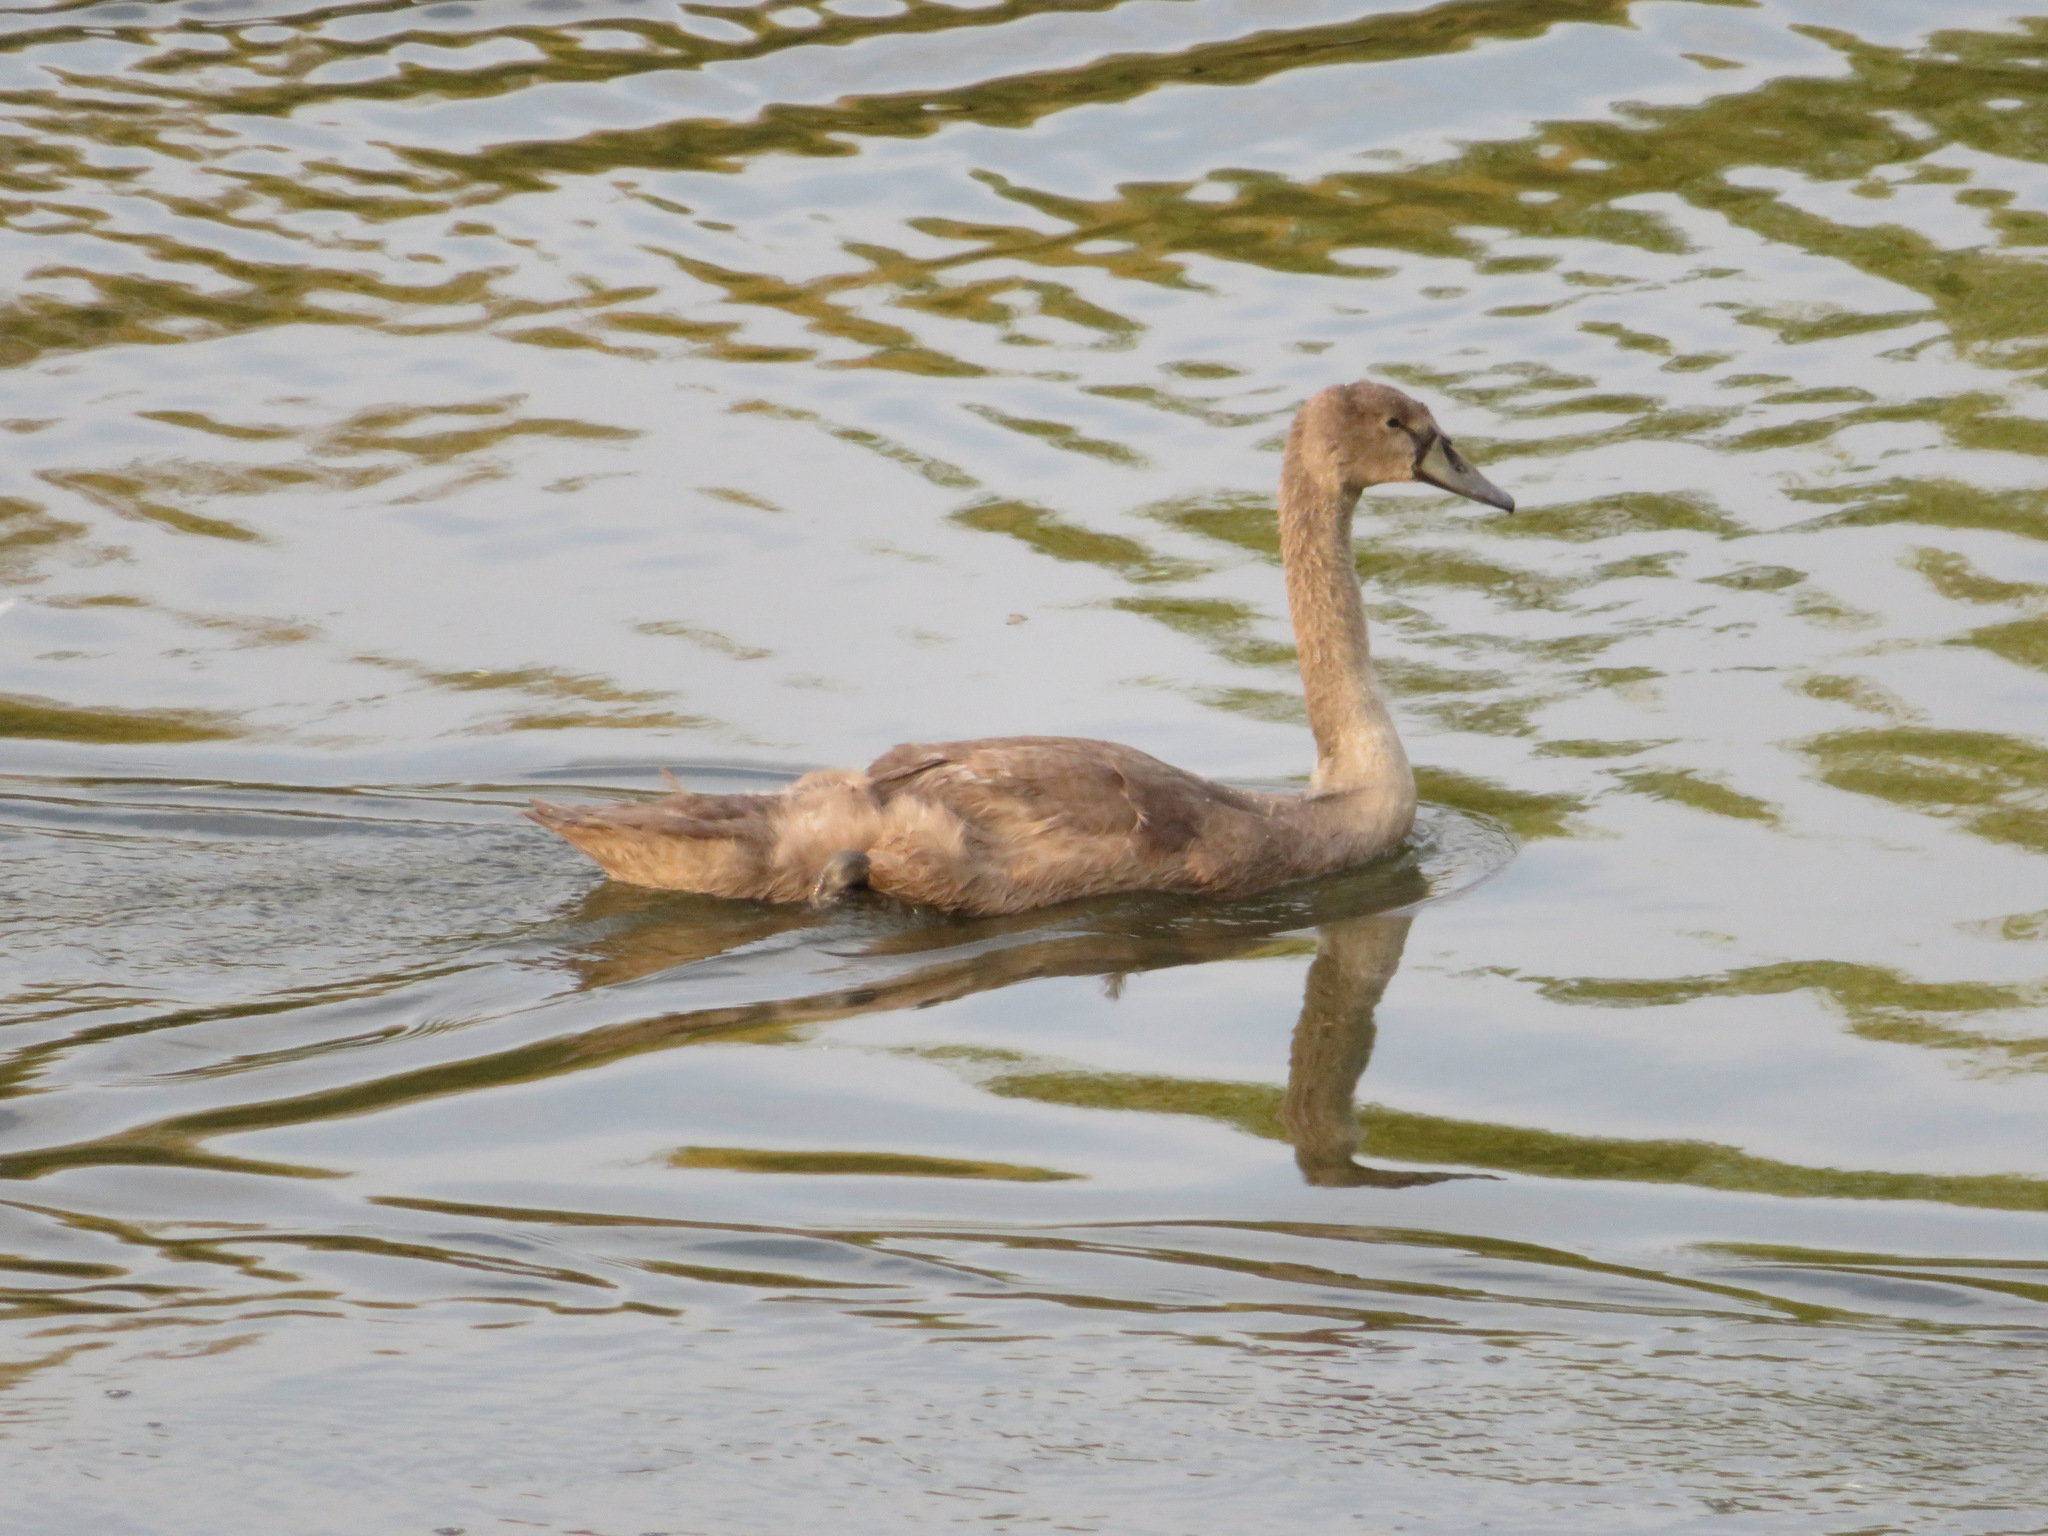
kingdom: Animalia
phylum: Chordata
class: Aves
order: Anseriformes
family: Anatidae
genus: Cygnus
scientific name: Cygnus olor
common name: Mute swan
